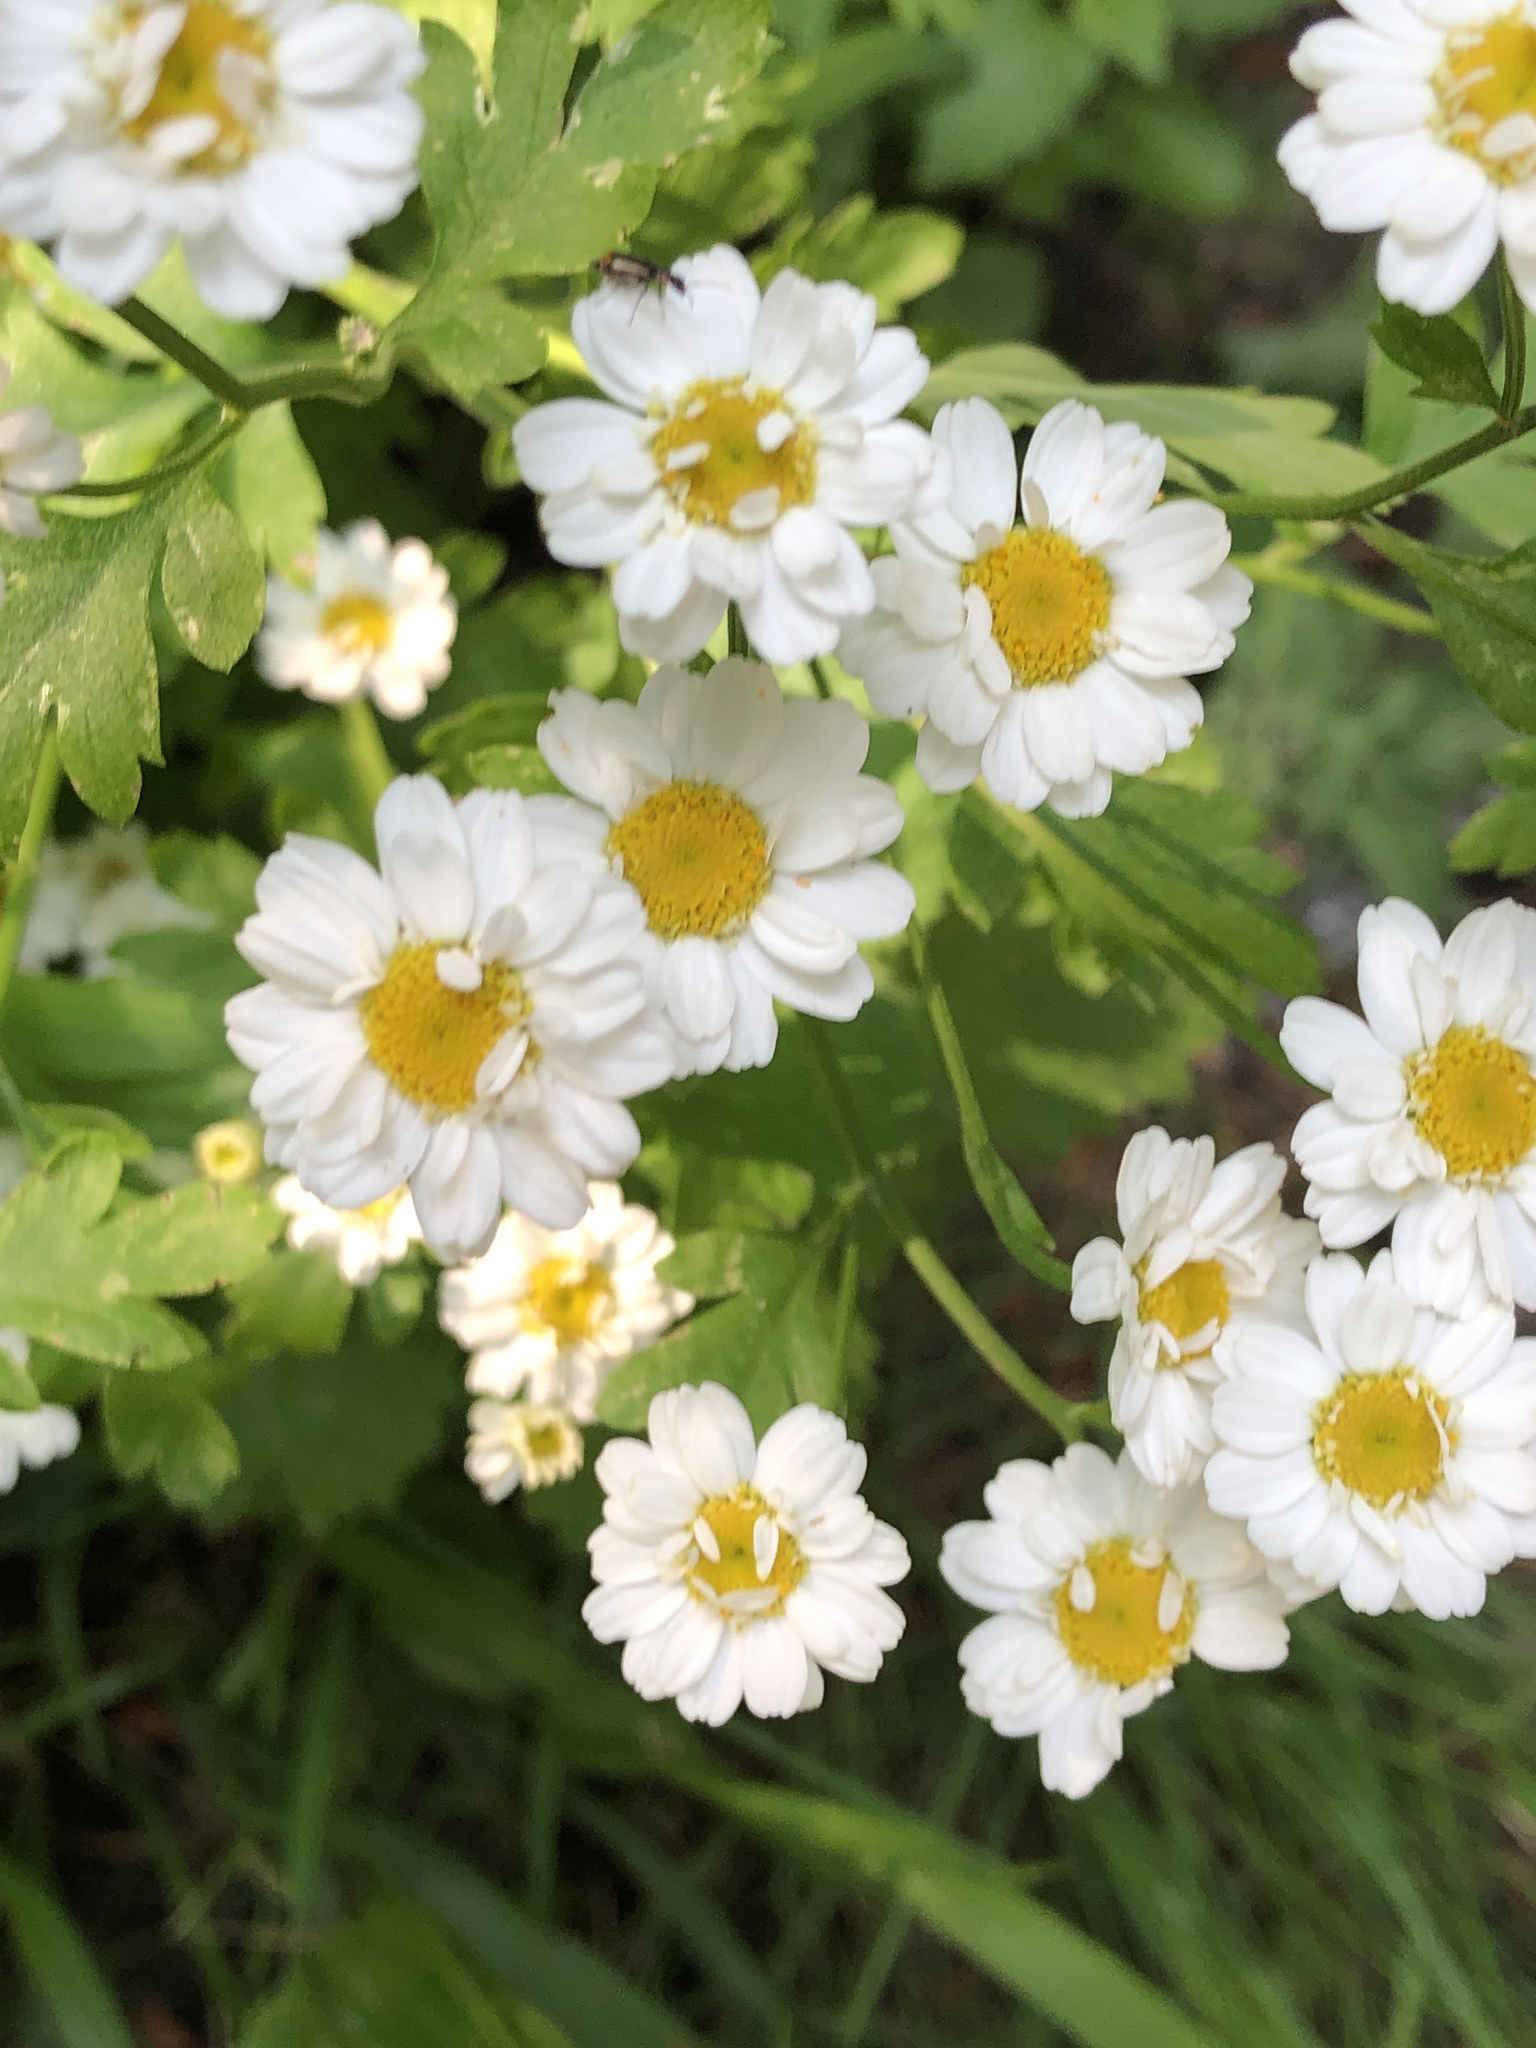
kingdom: Plantae
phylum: Tracheophyta
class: Magnoliopsida
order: Asterales
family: Asteraceae
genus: Tanacetum
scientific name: Tanacetum parthenium
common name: Feverfew
